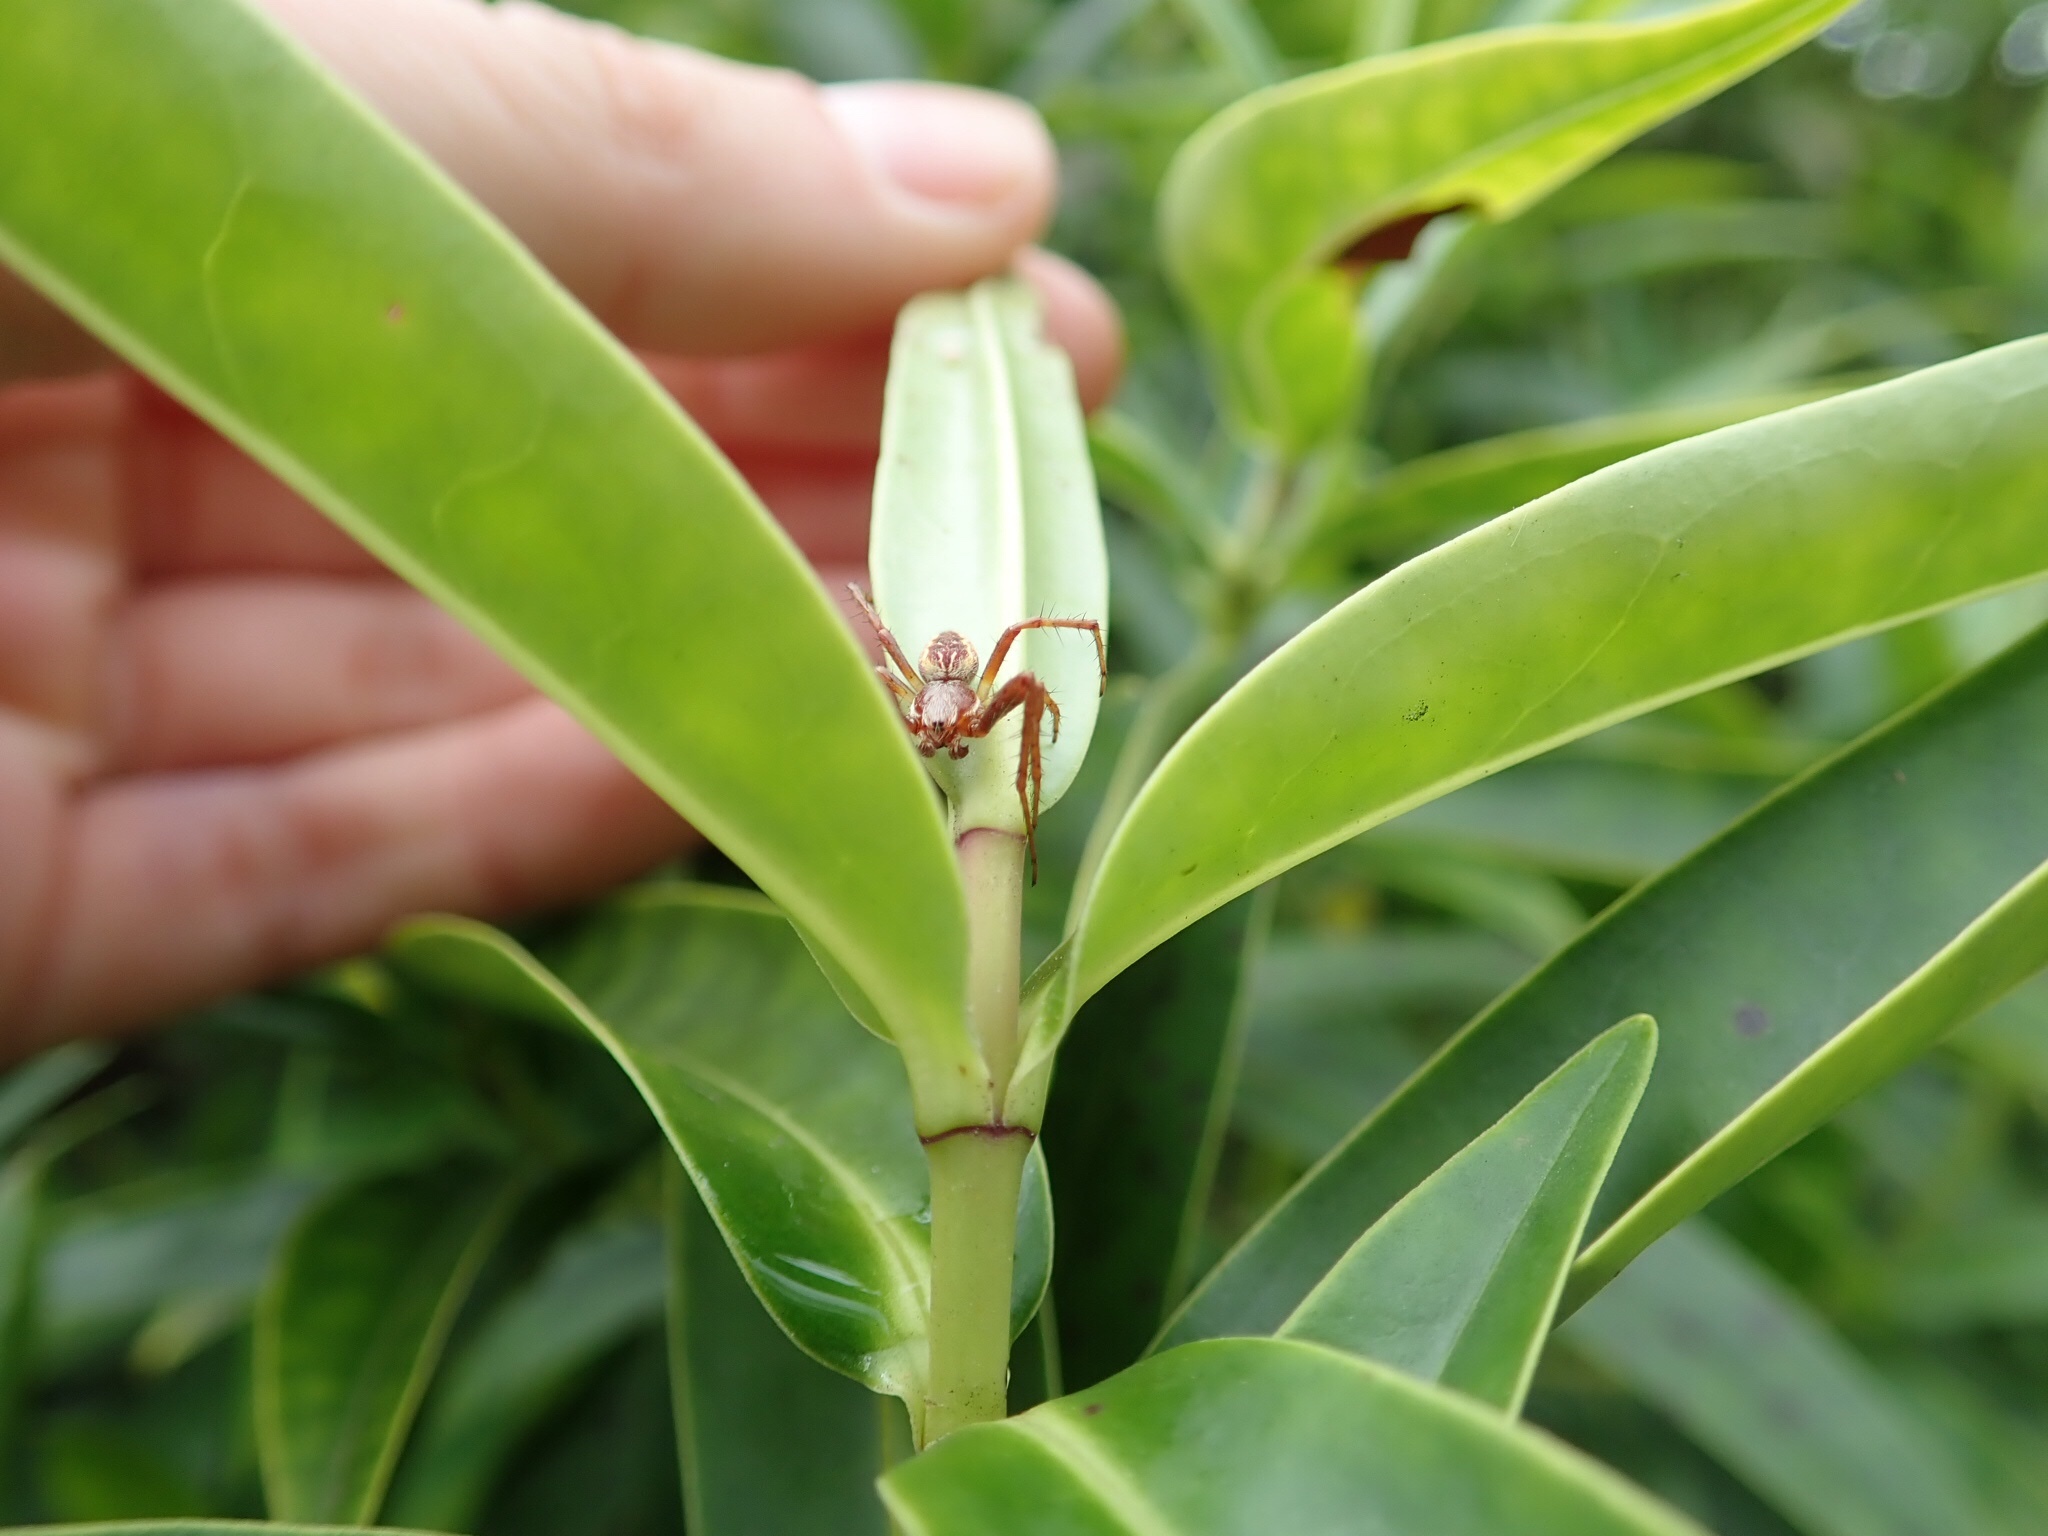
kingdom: Animalia
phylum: Arthropoda
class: Arachnida
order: Araneae
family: Araneidae
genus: Salsa
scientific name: Salsa fuliginata
